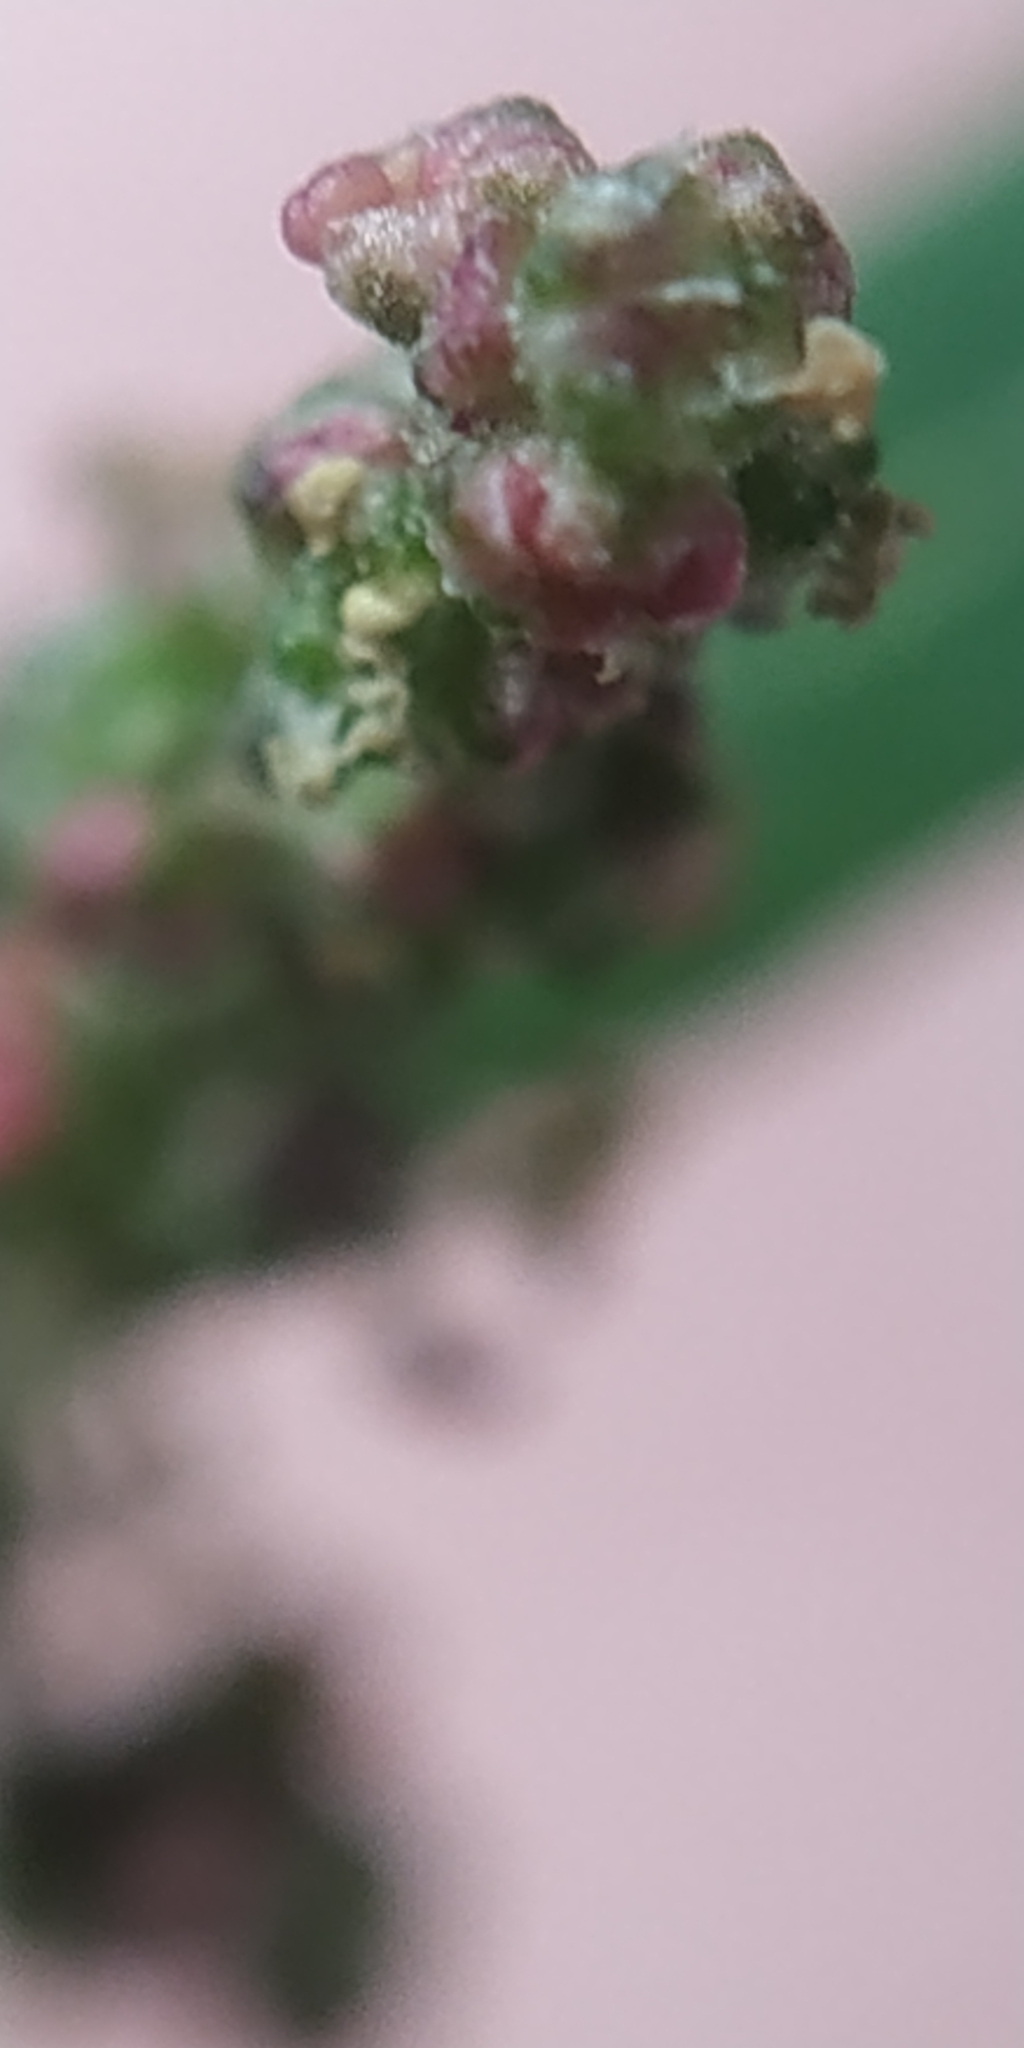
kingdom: Plantae
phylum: Tracheophyta
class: Magnoliopsida
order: Caryophyllales
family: Amaranthaceae
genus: Atriplex
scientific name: Atriplex patula
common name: Common orache
